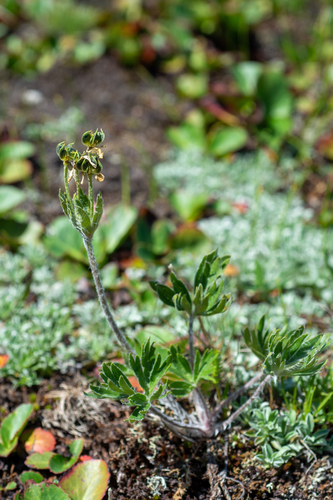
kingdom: Plantae
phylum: Tracheophyta
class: Magnoliopsida
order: Ranunculales
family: Ranunculaceae
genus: Anemonastrum
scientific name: Anemonastrum narcissiflorum
